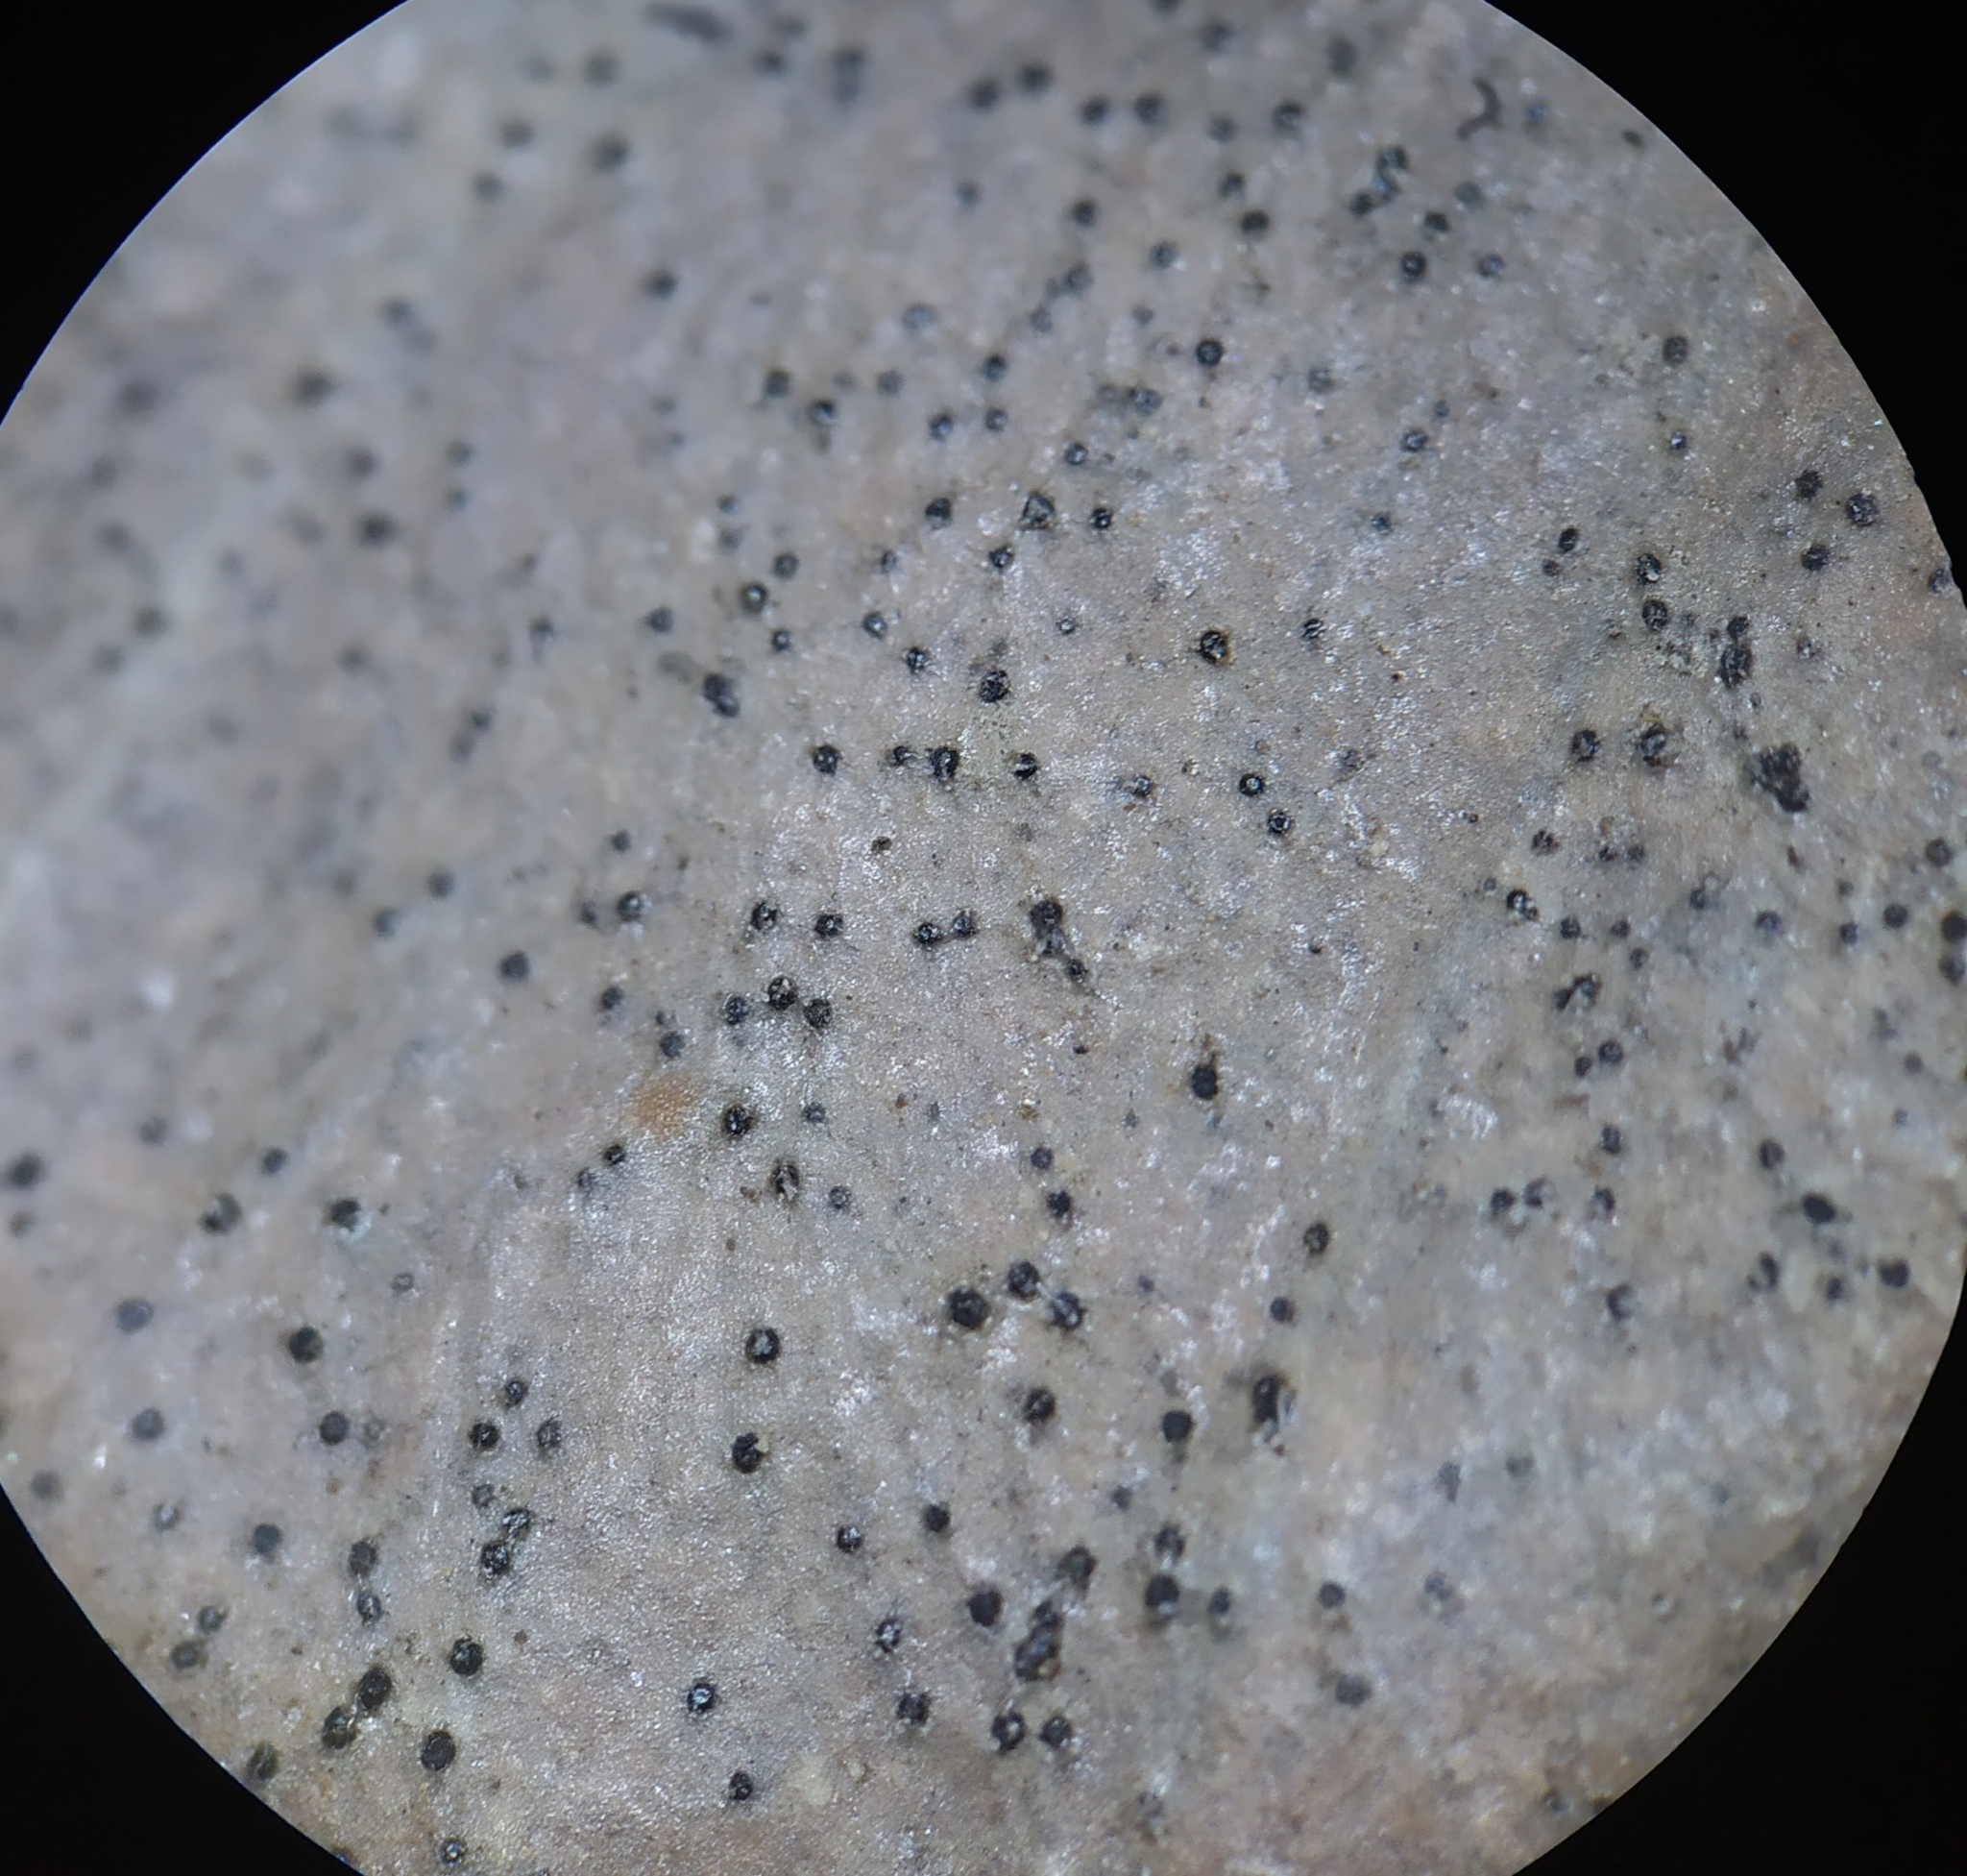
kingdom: Fungi
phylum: Ascomycota
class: Leotiomycetes
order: Helotiales
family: Cenangiaceae
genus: Trochila
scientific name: Trochila laurocerasi
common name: Laurel speckle
